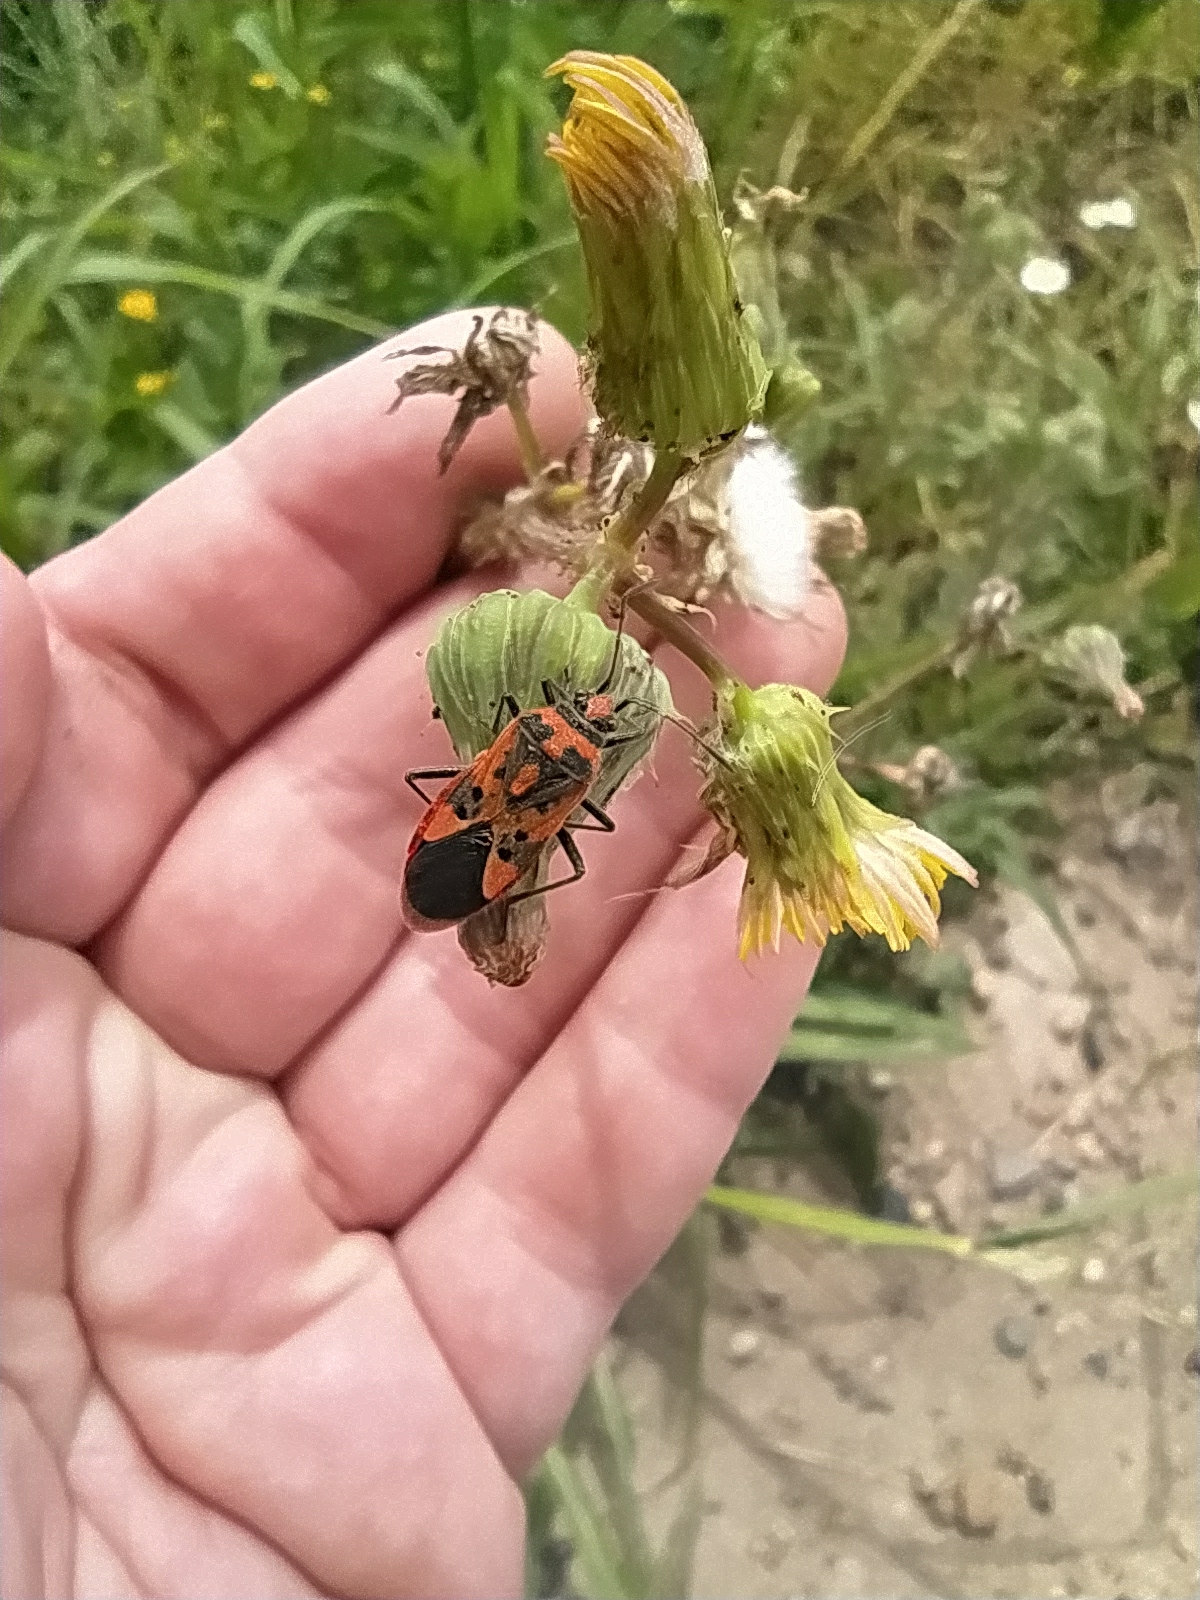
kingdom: Animalia
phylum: Arthropoda
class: Insecta
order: Hemiptera
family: Rhopalidae
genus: Corizus
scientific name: Corizus hyoscyami
